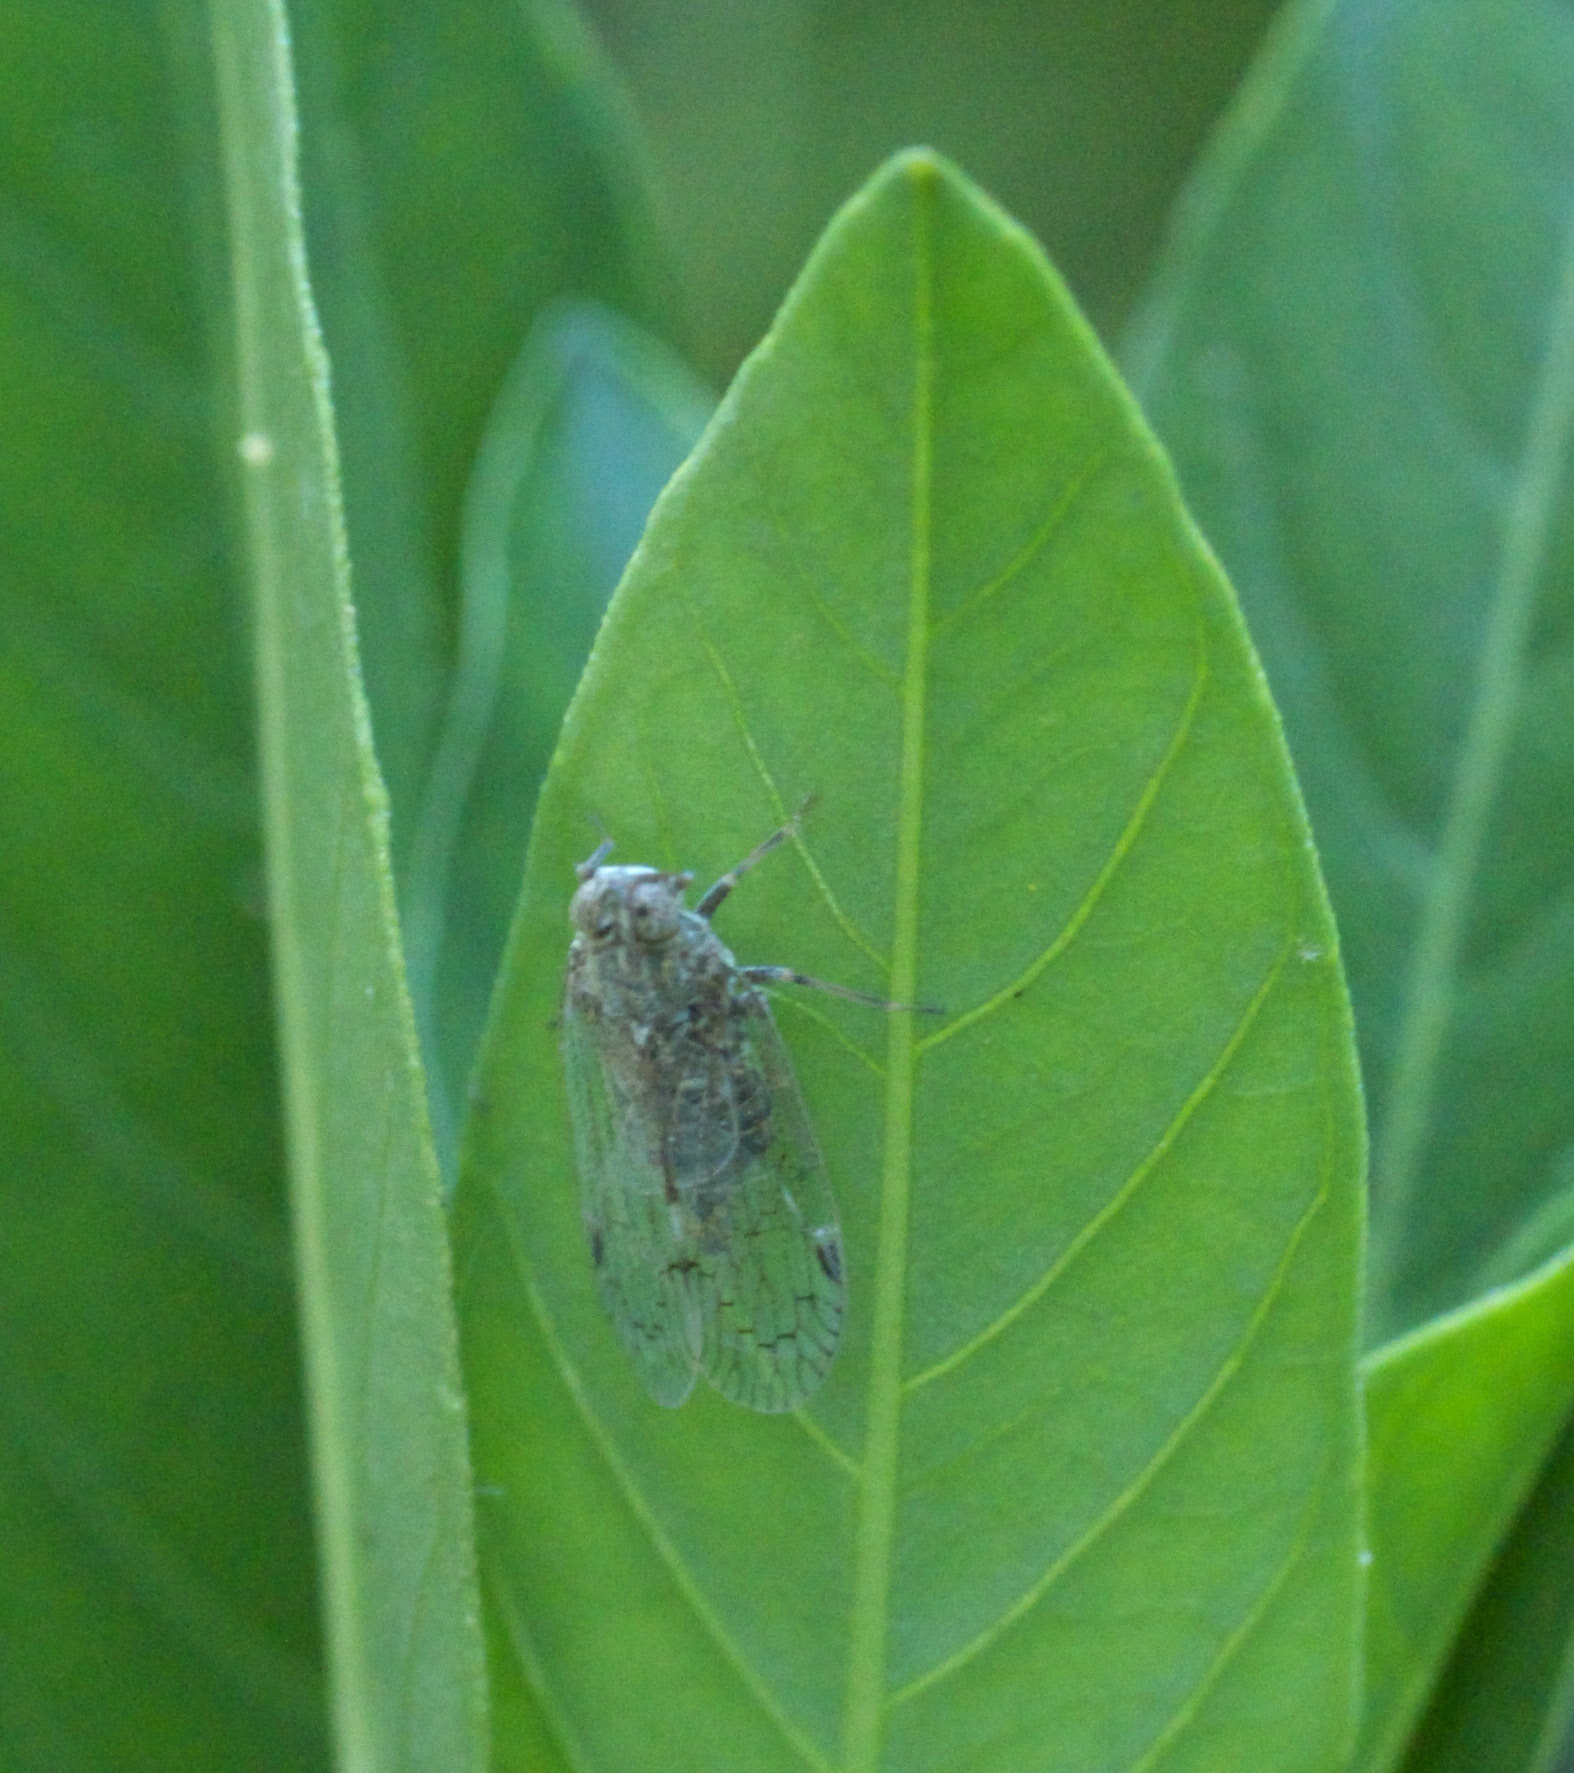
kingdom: Animalia
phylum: Arthropoda
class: Insecta
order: Hemiptera
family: Cixiidae
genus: Melanoliarus
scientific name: Melanoliarus aridus
